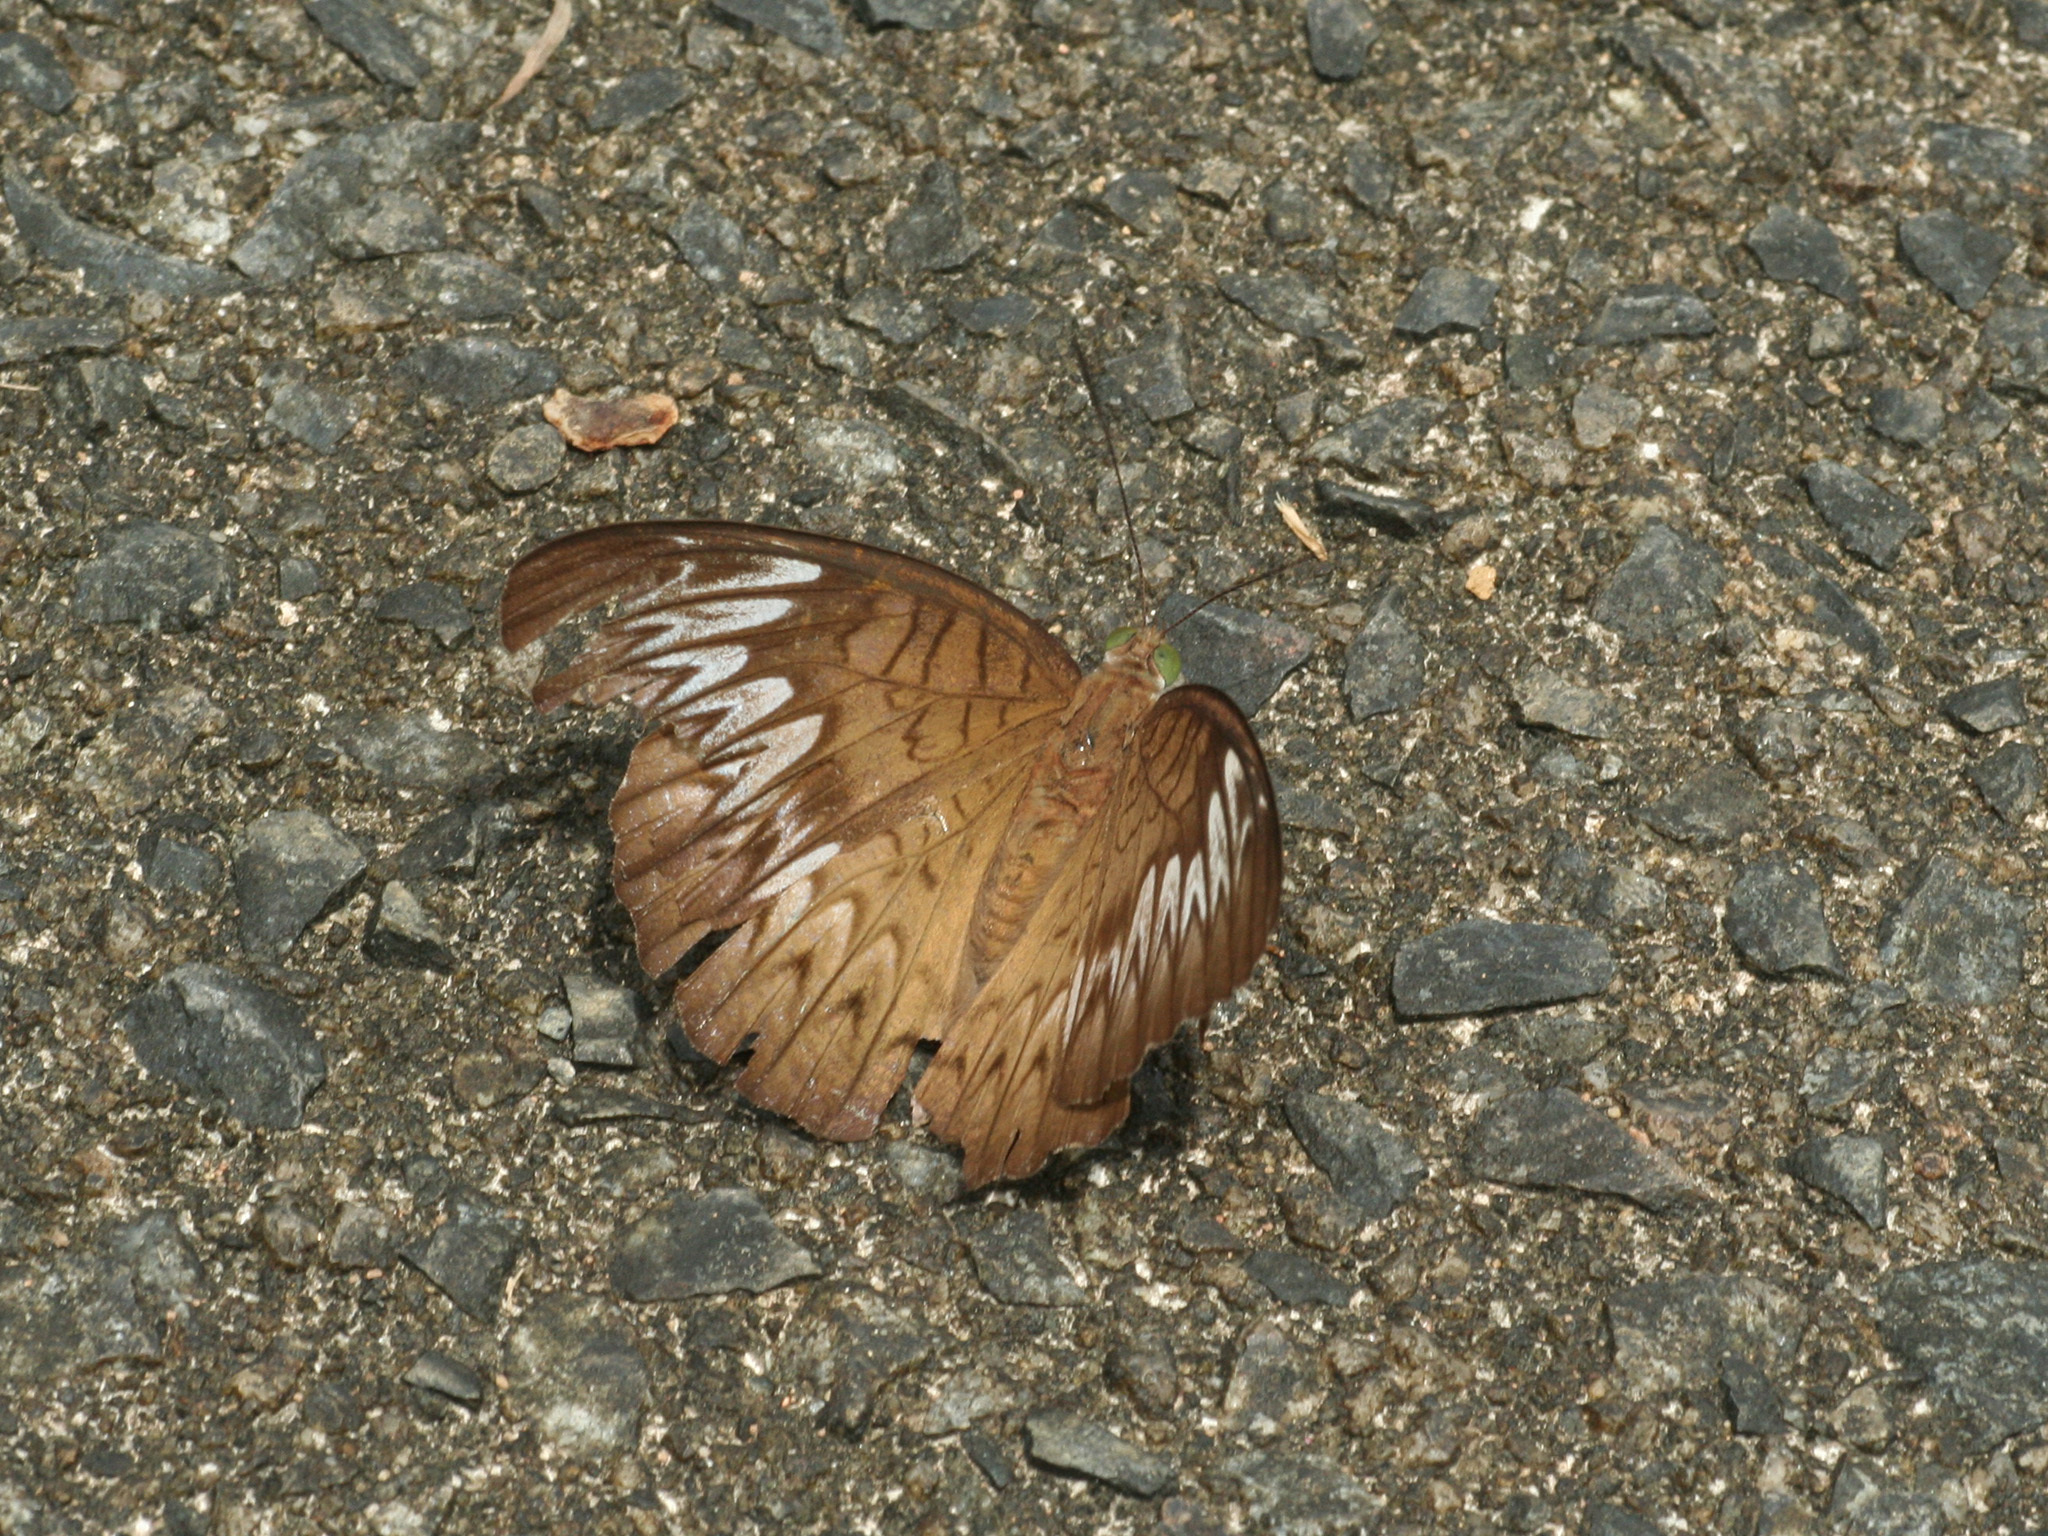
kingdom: Animalia
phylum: Arthropoda
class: Insecta
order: Lepidoptera
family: Nymphalidae
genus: Tanaecia
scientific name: Tanaecia pelea
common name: Malay viscount
